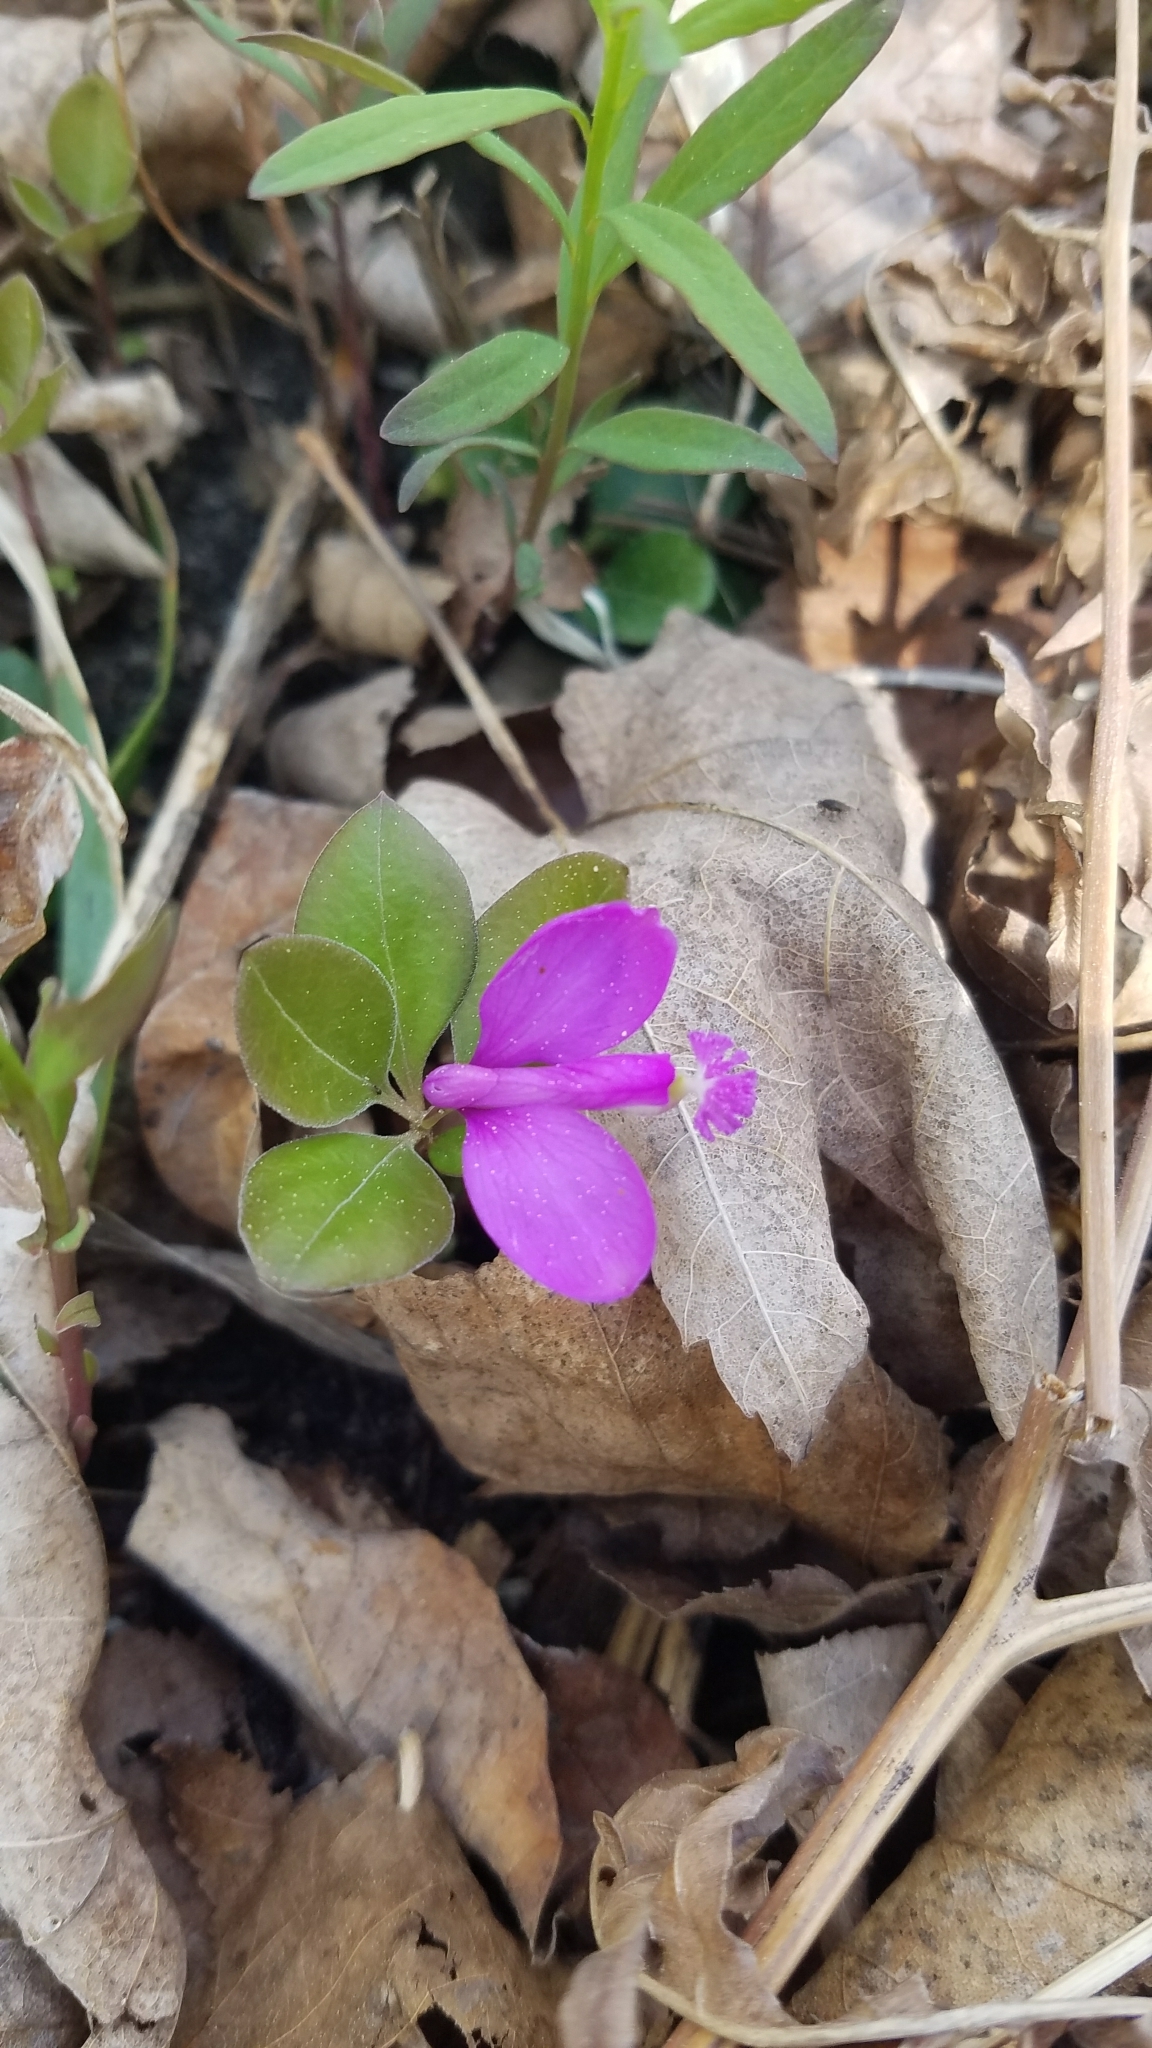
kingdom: Plantae
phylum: Tracheophyta
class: Magnoliopsida
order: Fabales
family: Polygalaceae
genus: Polygaloides
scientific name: Polygaloides paucifolia
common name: Bird-on-the-wing
